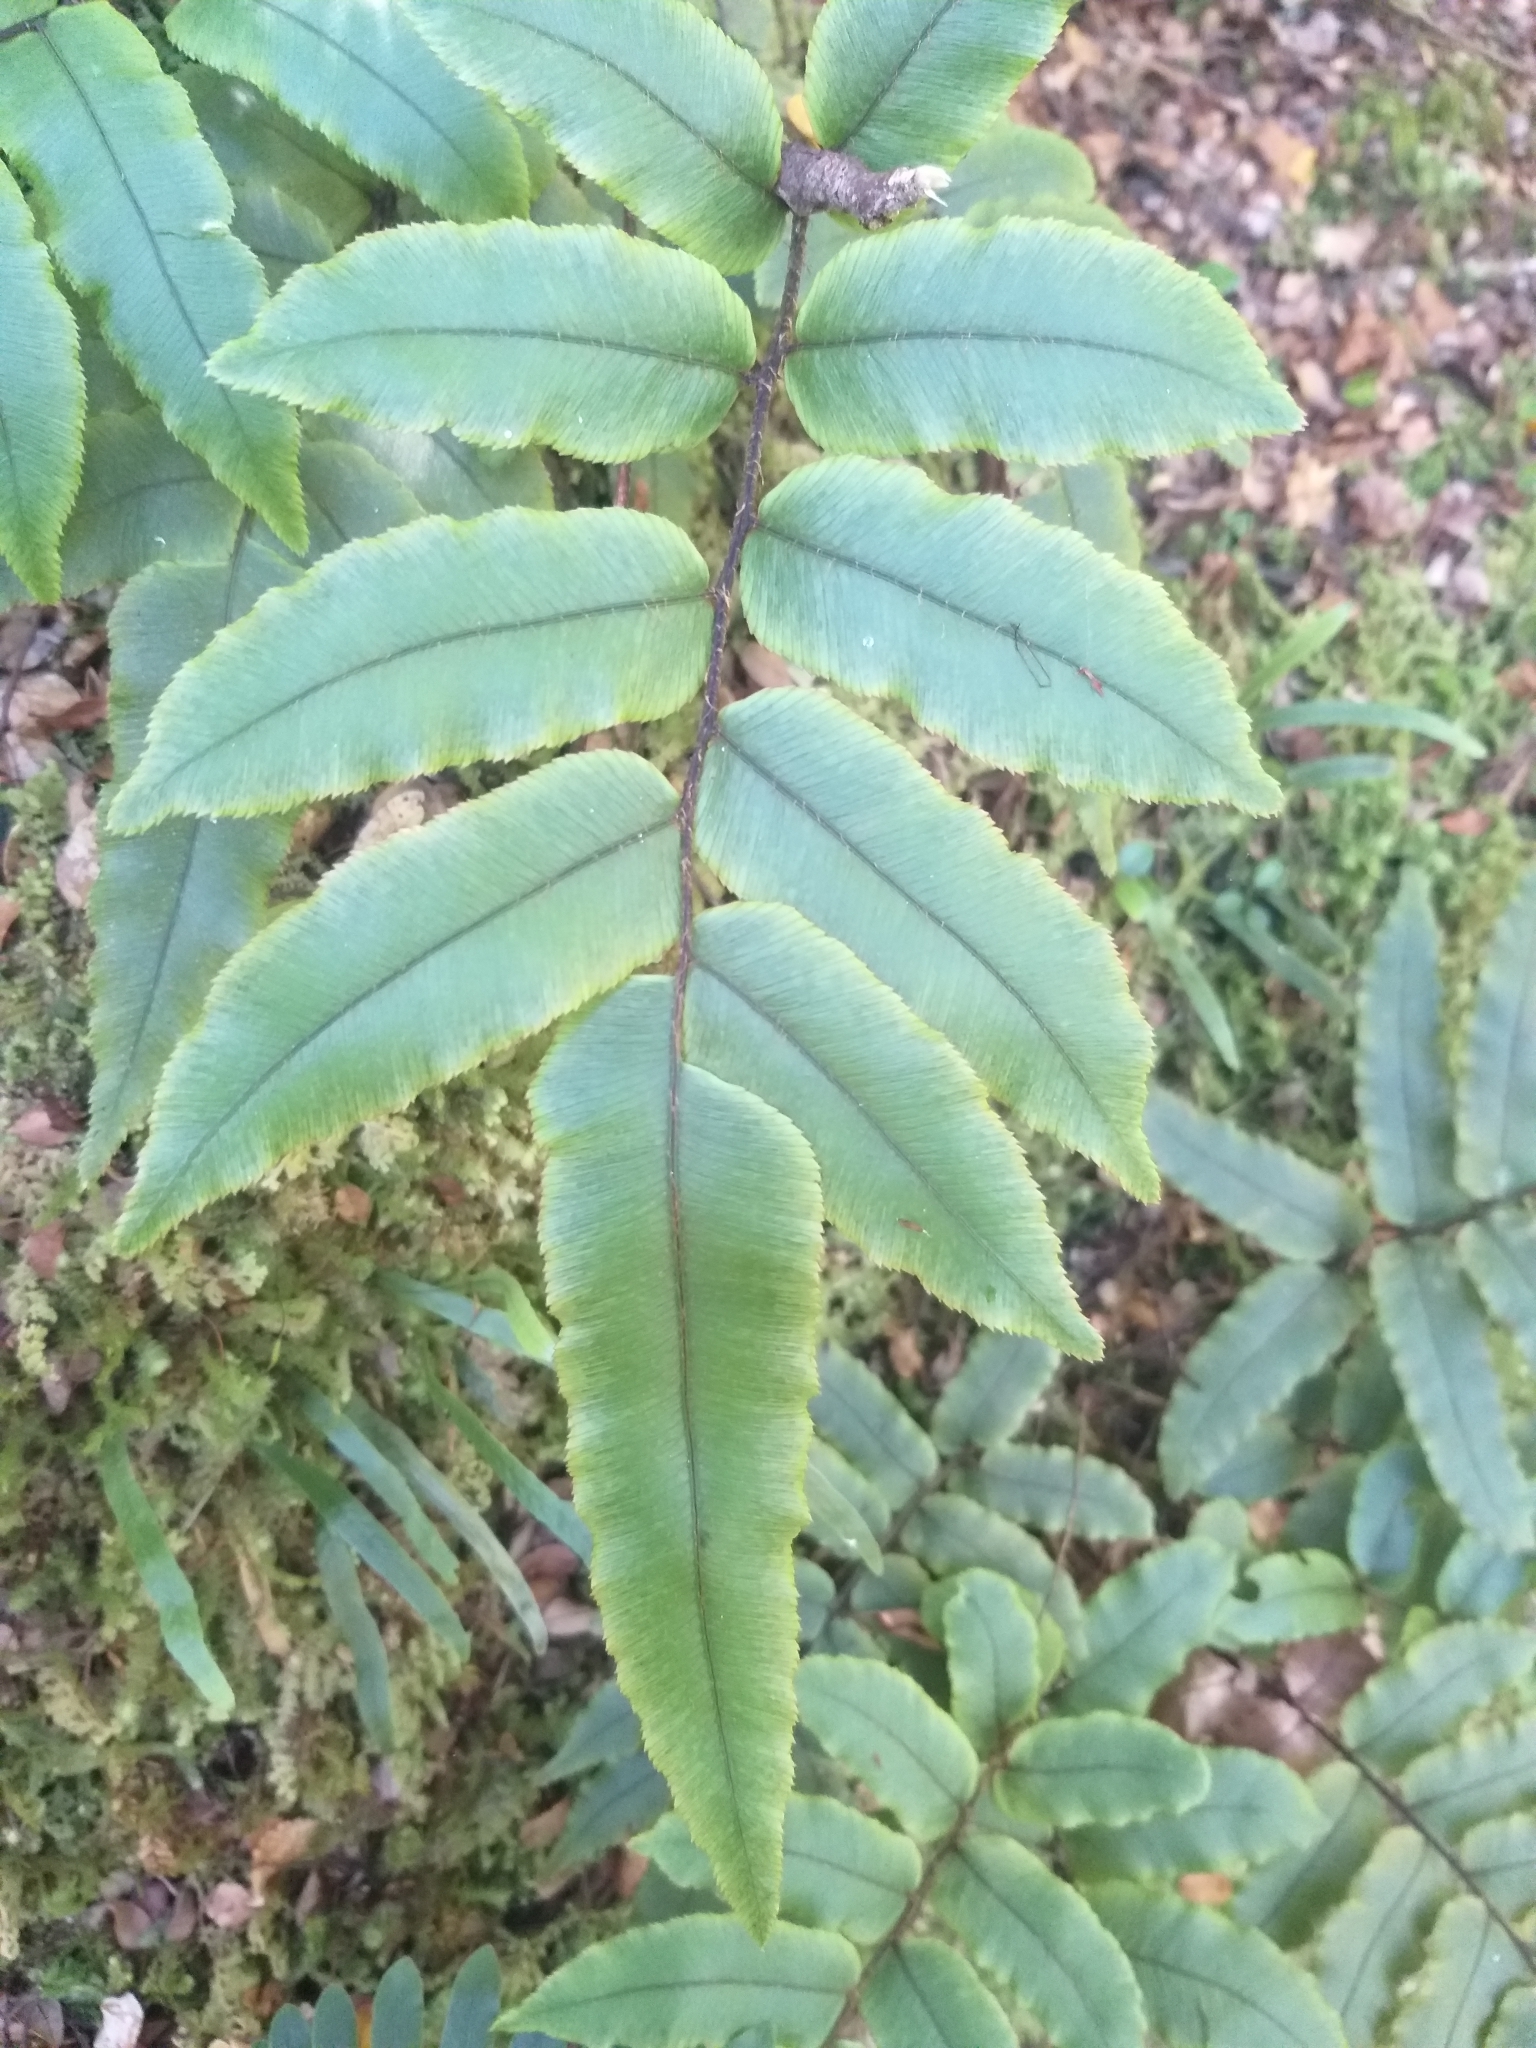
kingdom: Plantae
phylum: Tracheophyta
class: Polypodiopsida
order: Polypodiales
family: Blechnaceae
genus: Parablechnum
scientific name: Parablechnum procerum
